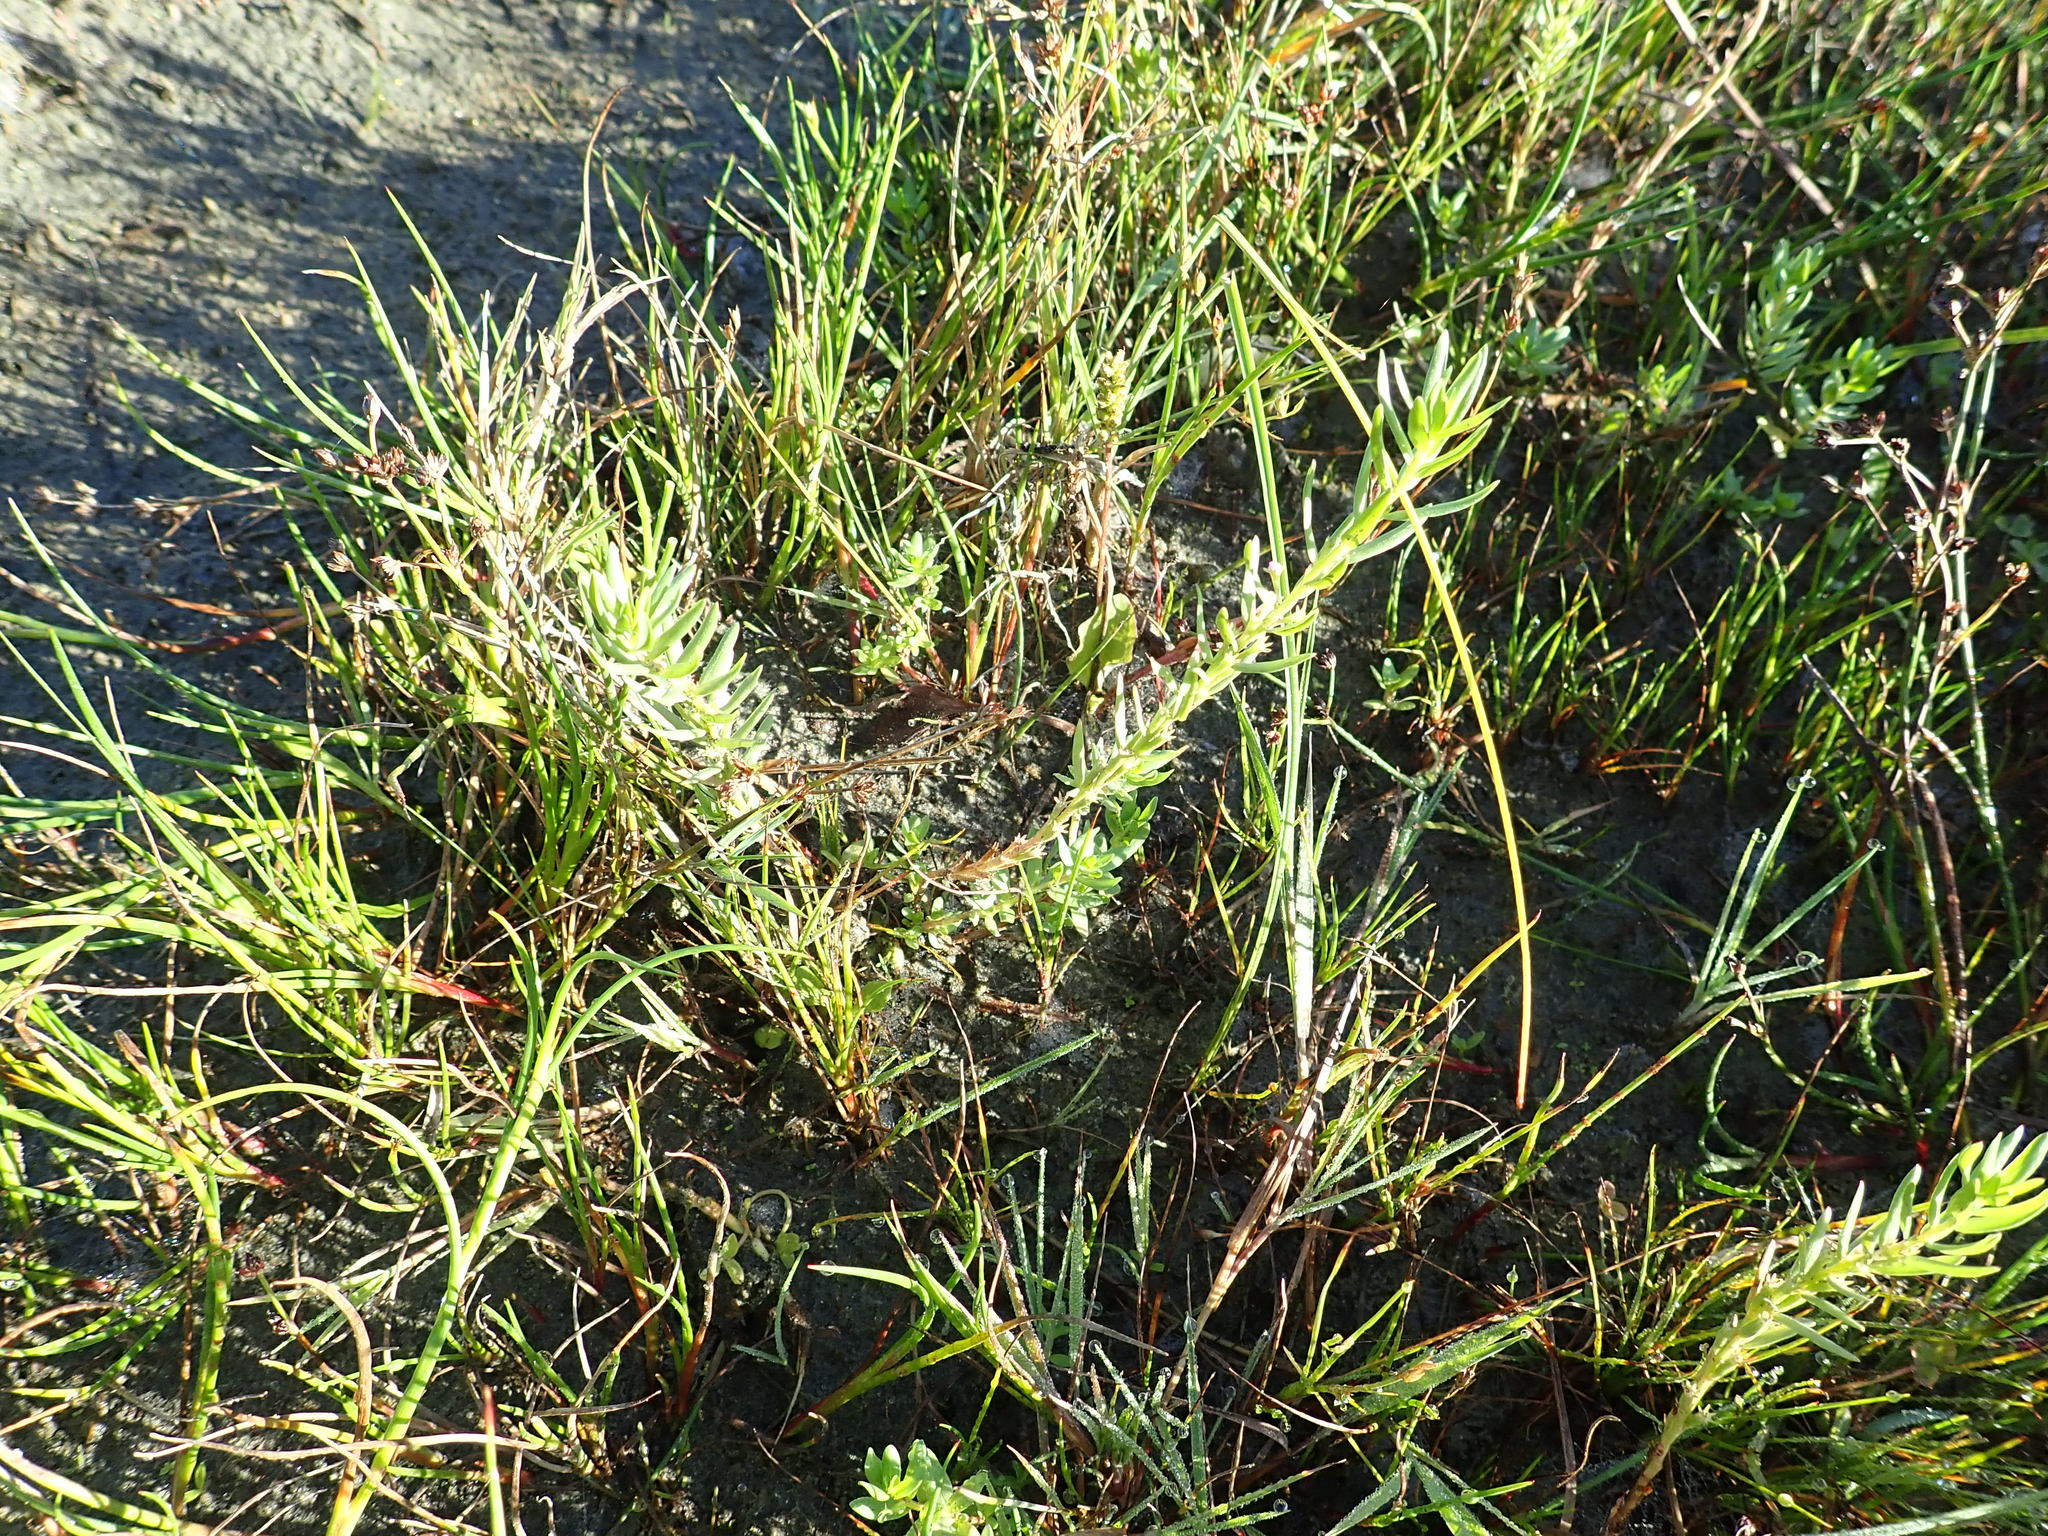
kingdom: Plantae
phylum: Tracheophyta
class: Magnoliopsida
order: Myrtales
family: Lythraceae
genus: Lythrum
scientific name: Lythrum hyssopifolia
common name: Grass-poly
